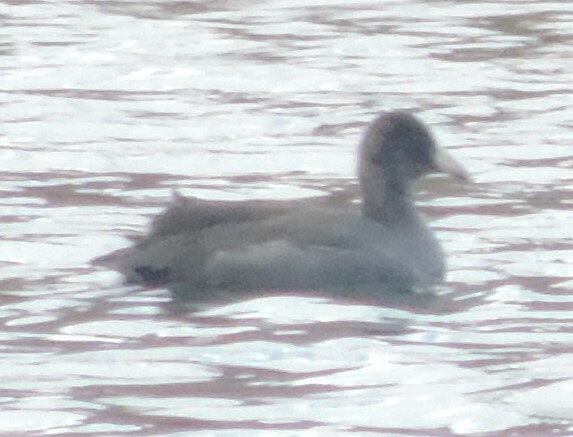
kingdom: Animalia
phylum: Chordata
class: Aves
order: Gruiformes
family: Rallidae
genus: Fulica
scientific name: Fulica americana
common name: American coot
